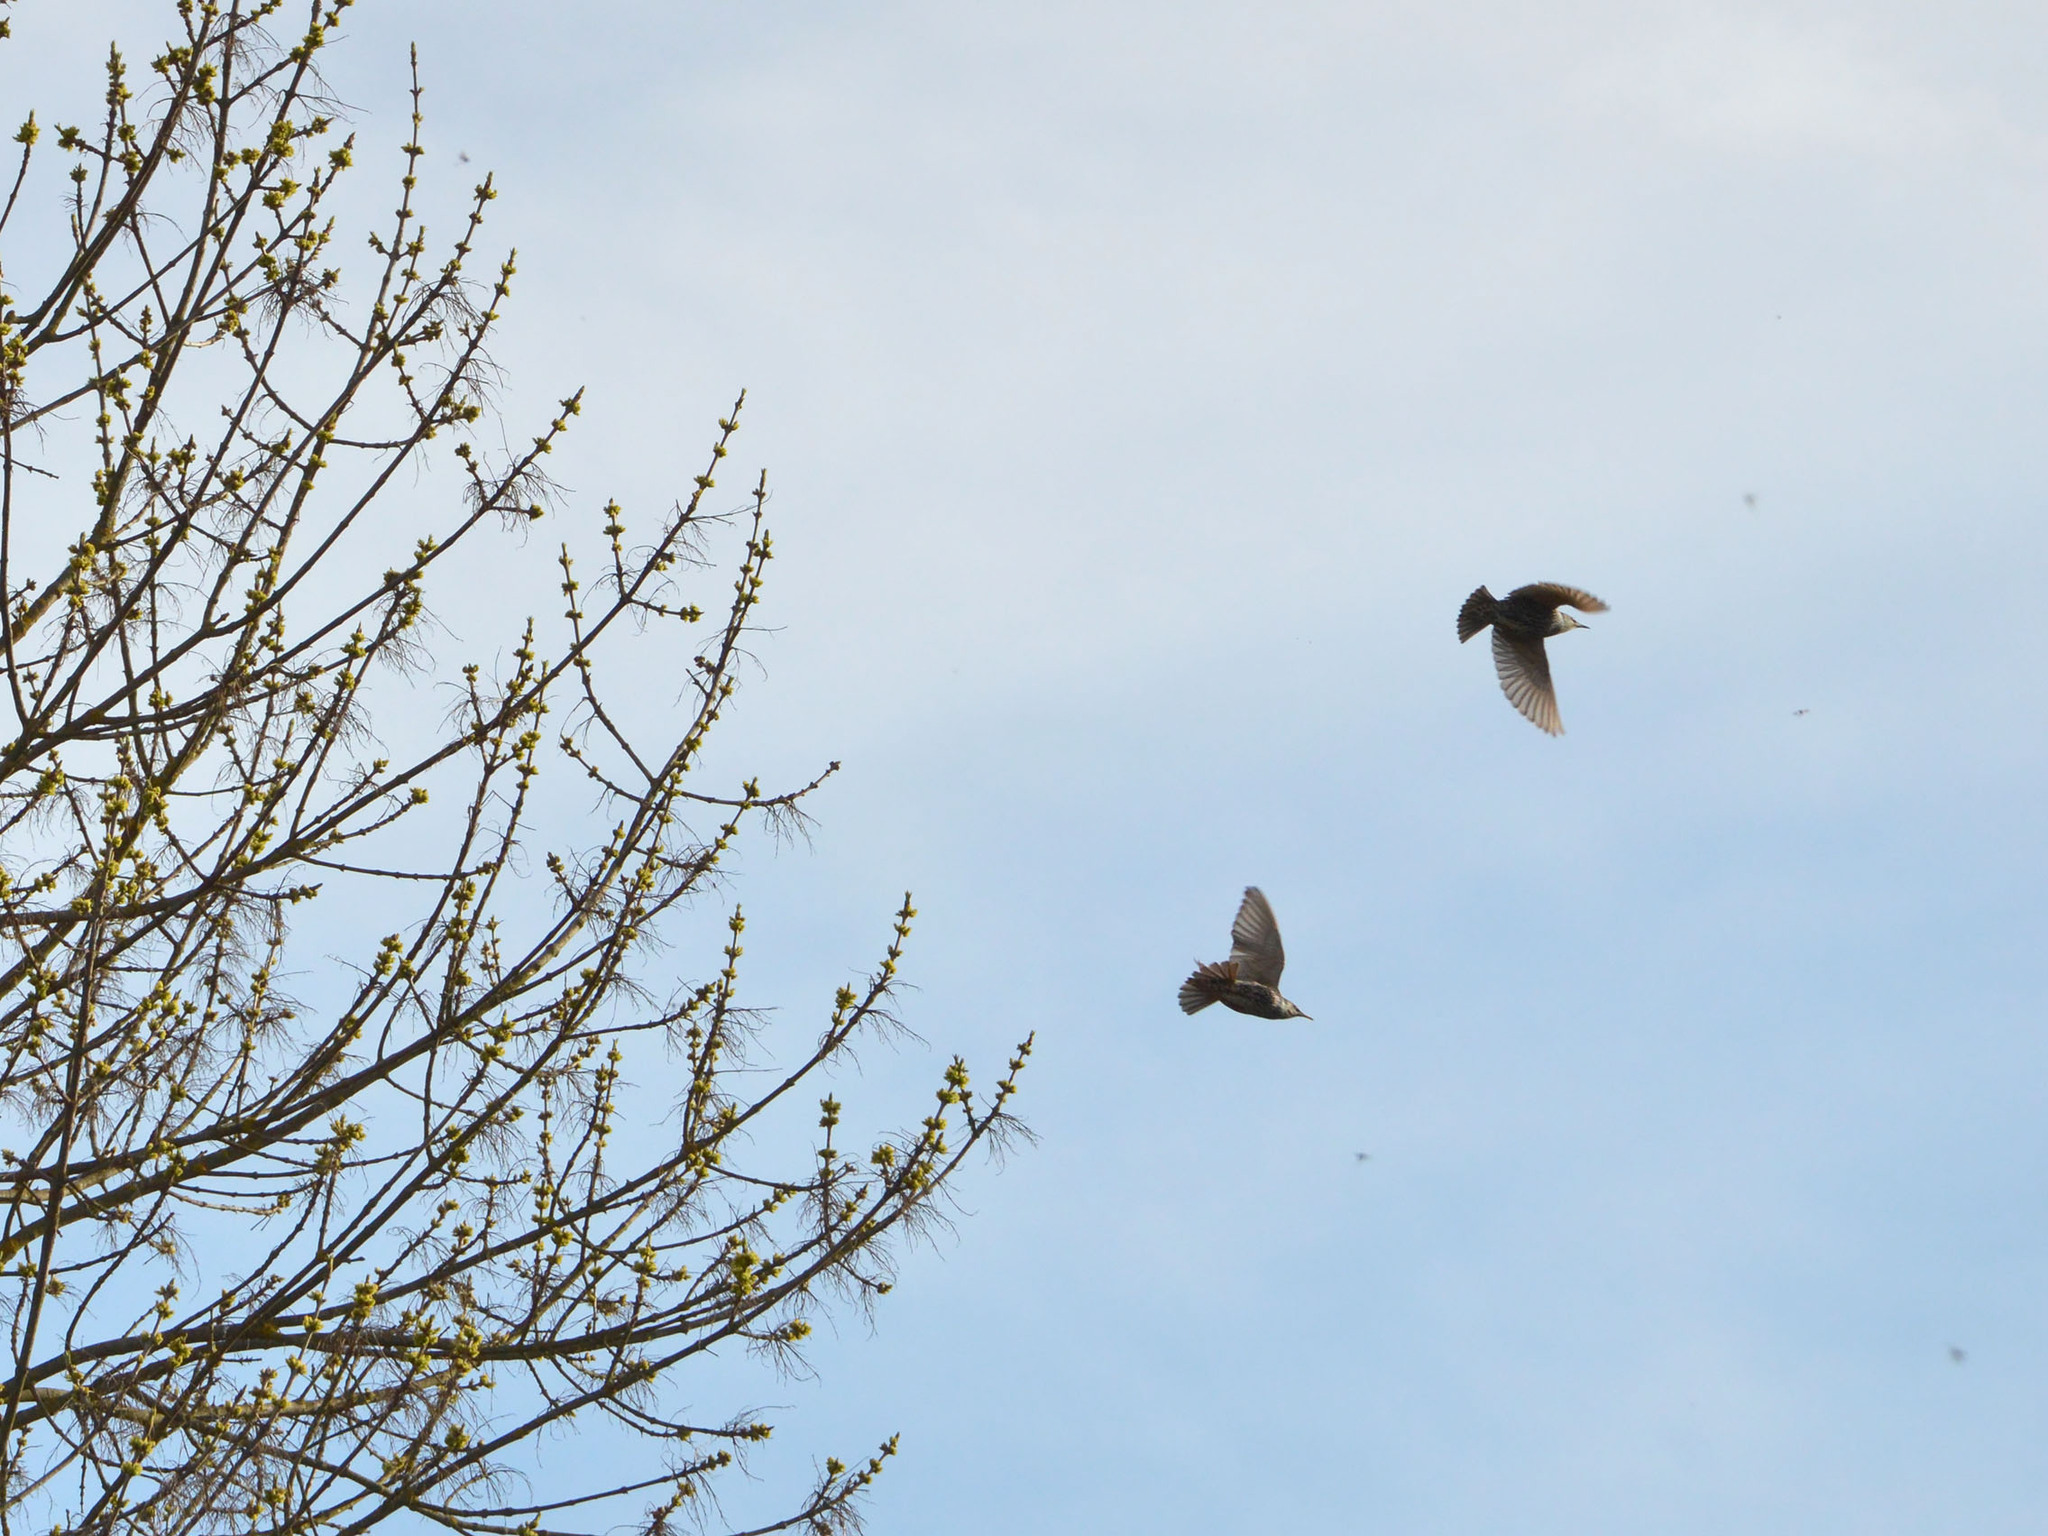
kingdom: Animalia
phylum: Chordata
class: Aves
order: Passeriformes
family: Sturnidae
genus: Sturnus
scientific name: Sturnus vulgaris
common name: Common starling
